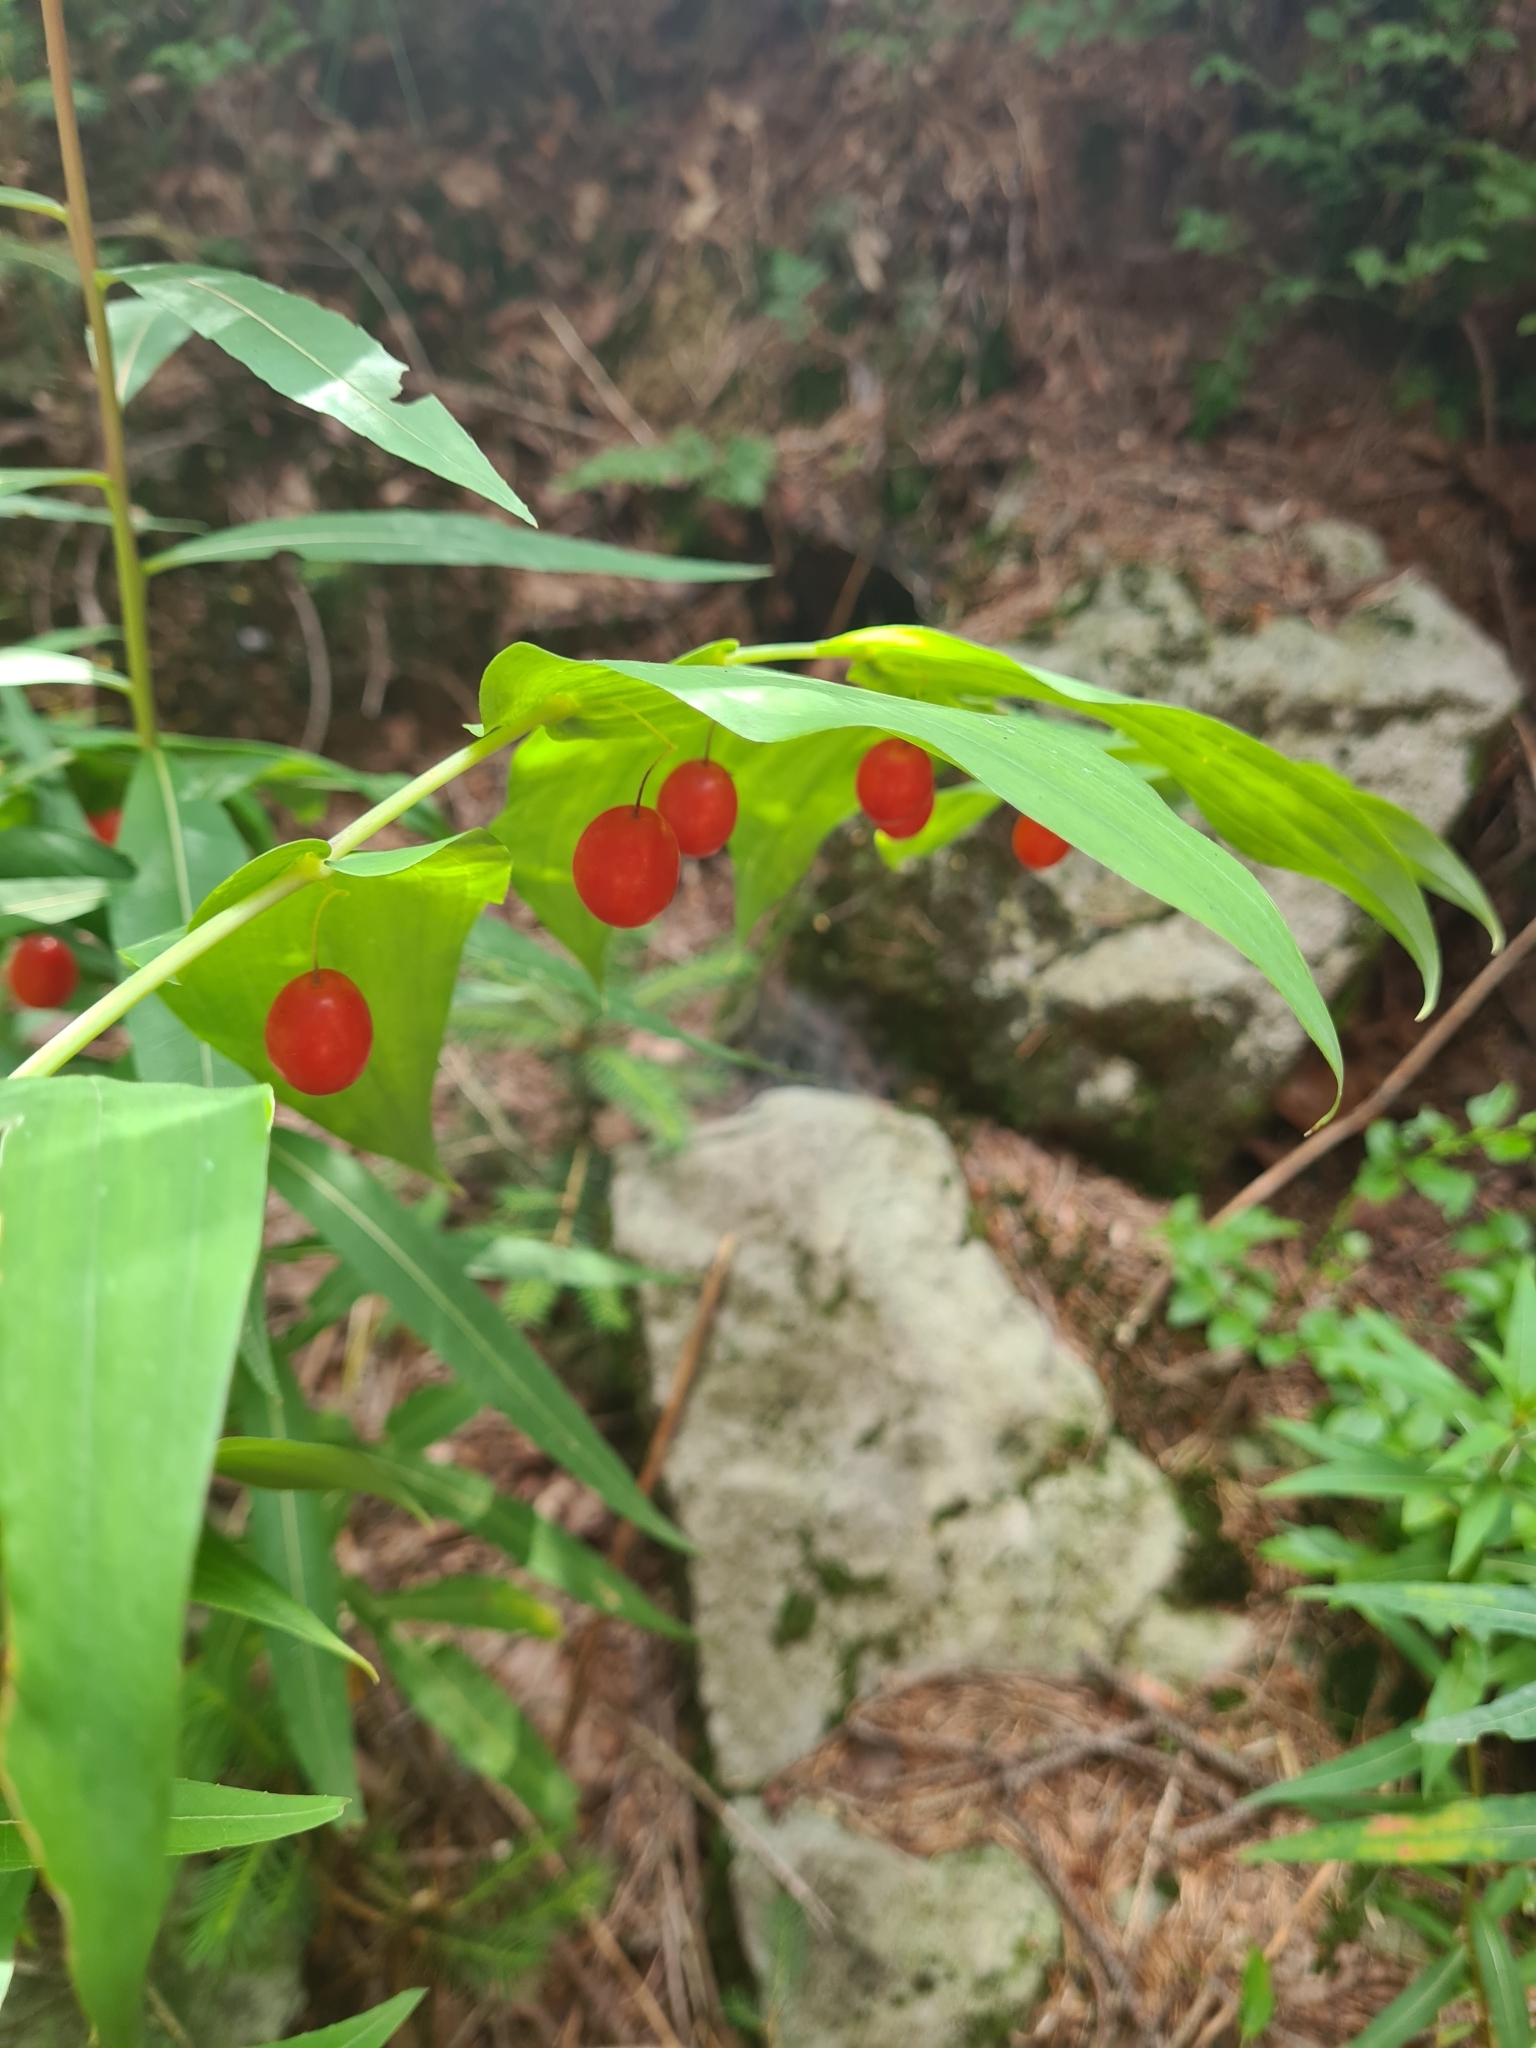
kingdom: Plantae
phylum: Tracheophyta
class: Liliopsida
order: Liliales
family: Liliaceae
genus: Streptopus
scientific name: Streptopus amplexifolius
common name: Clasp twisted stalk
